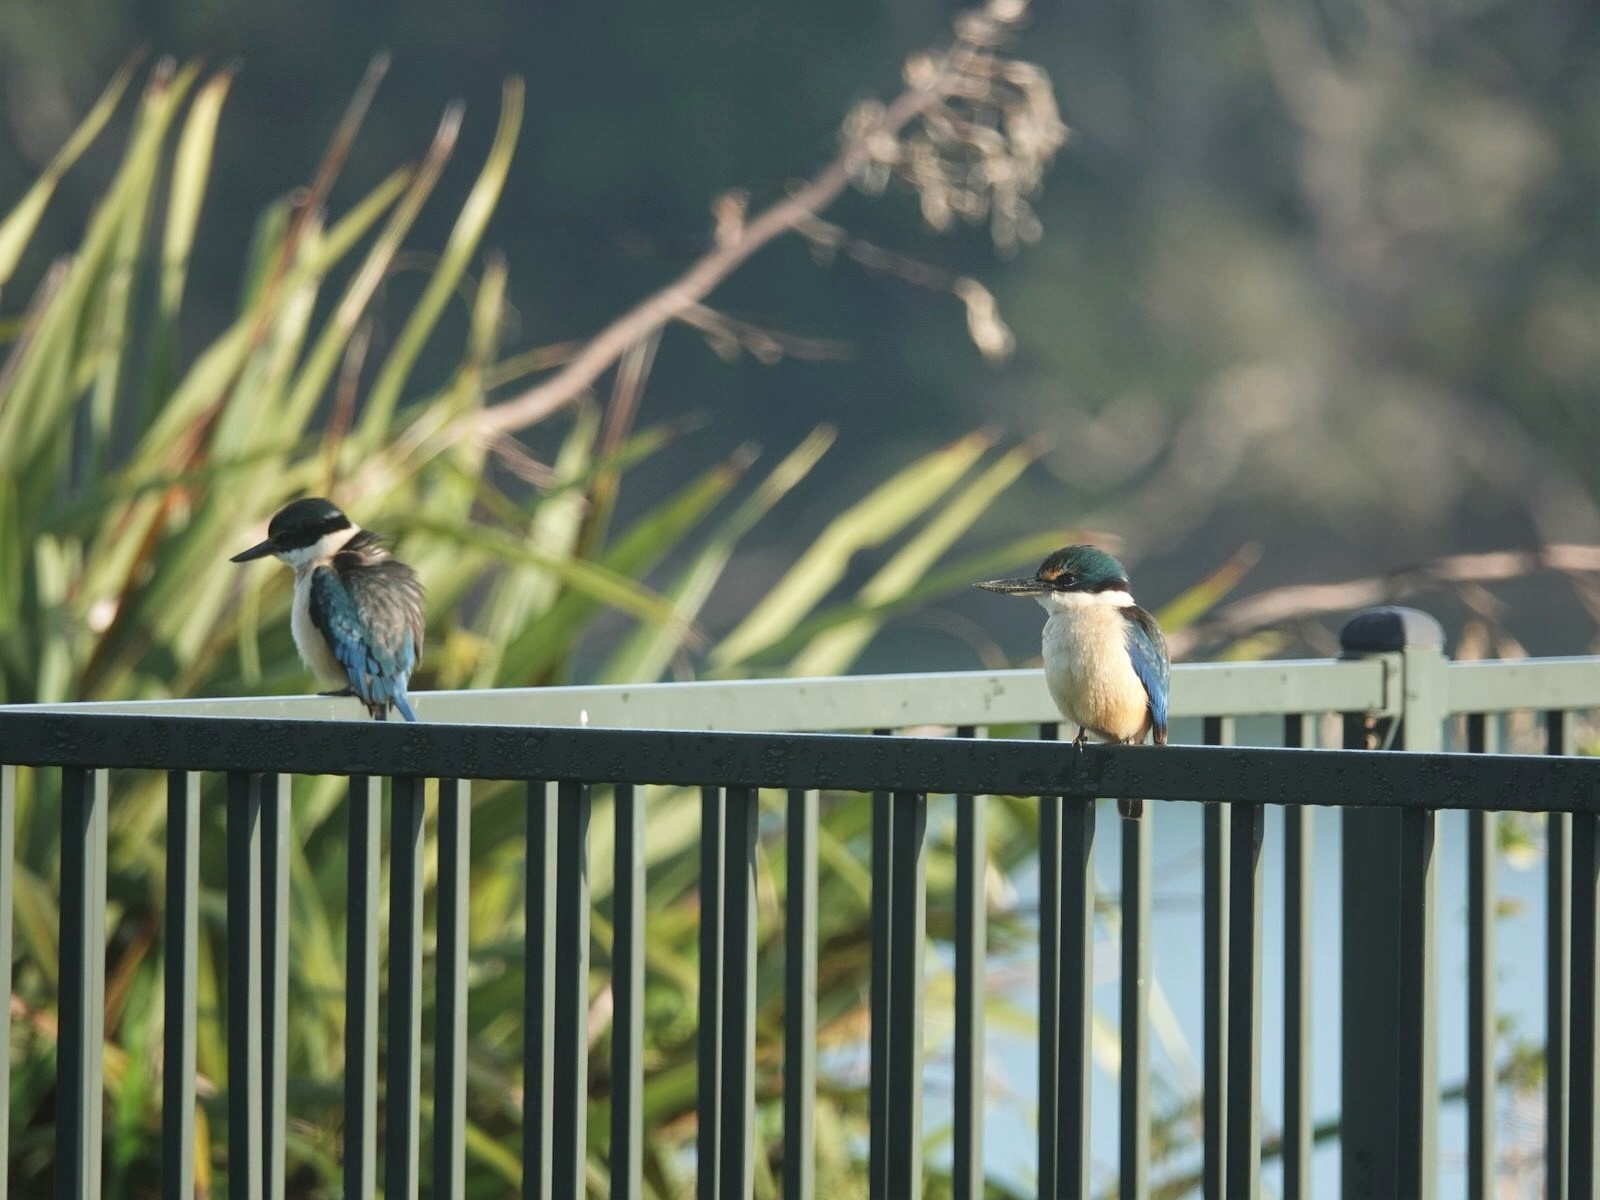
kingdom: Animalia
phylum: Chordata
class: Aves
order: Coraciiformes
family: Alcedinidae
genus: Todiramphus
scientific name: Todiramphus sanctus
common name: Sacred kingfisher
